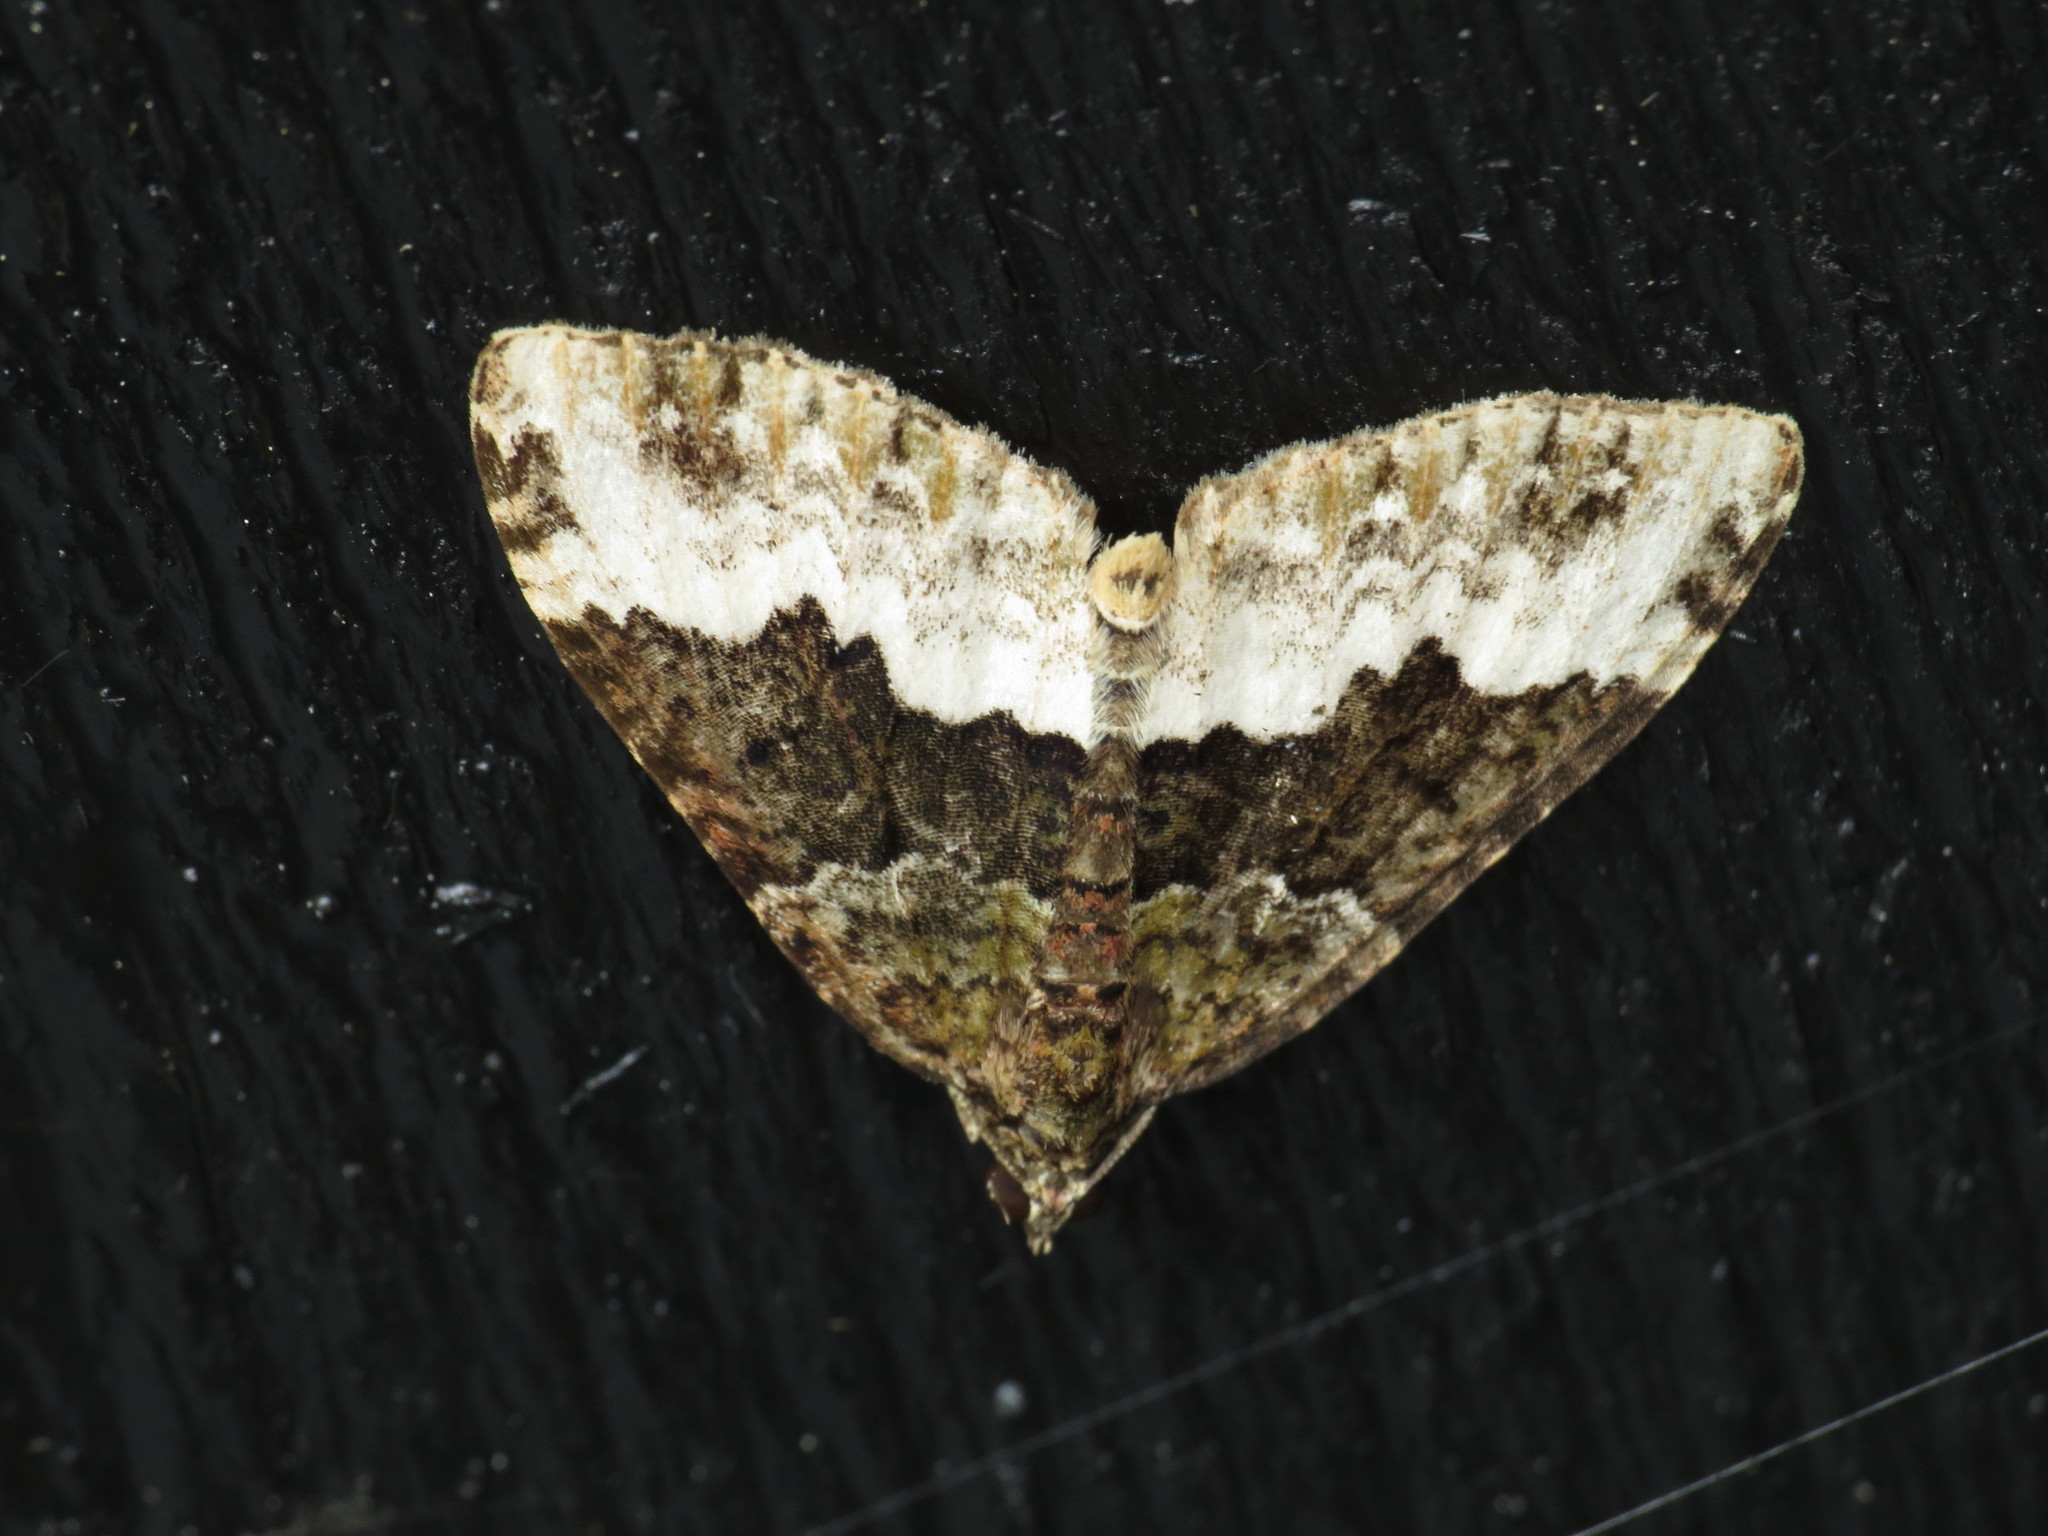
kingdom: Animalia
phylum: Arthropoda
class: Insecta
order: Lepidoptera
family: Geometridae
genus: Euphyia
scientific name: Euphyia biangulata
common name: Cloaked carpet
